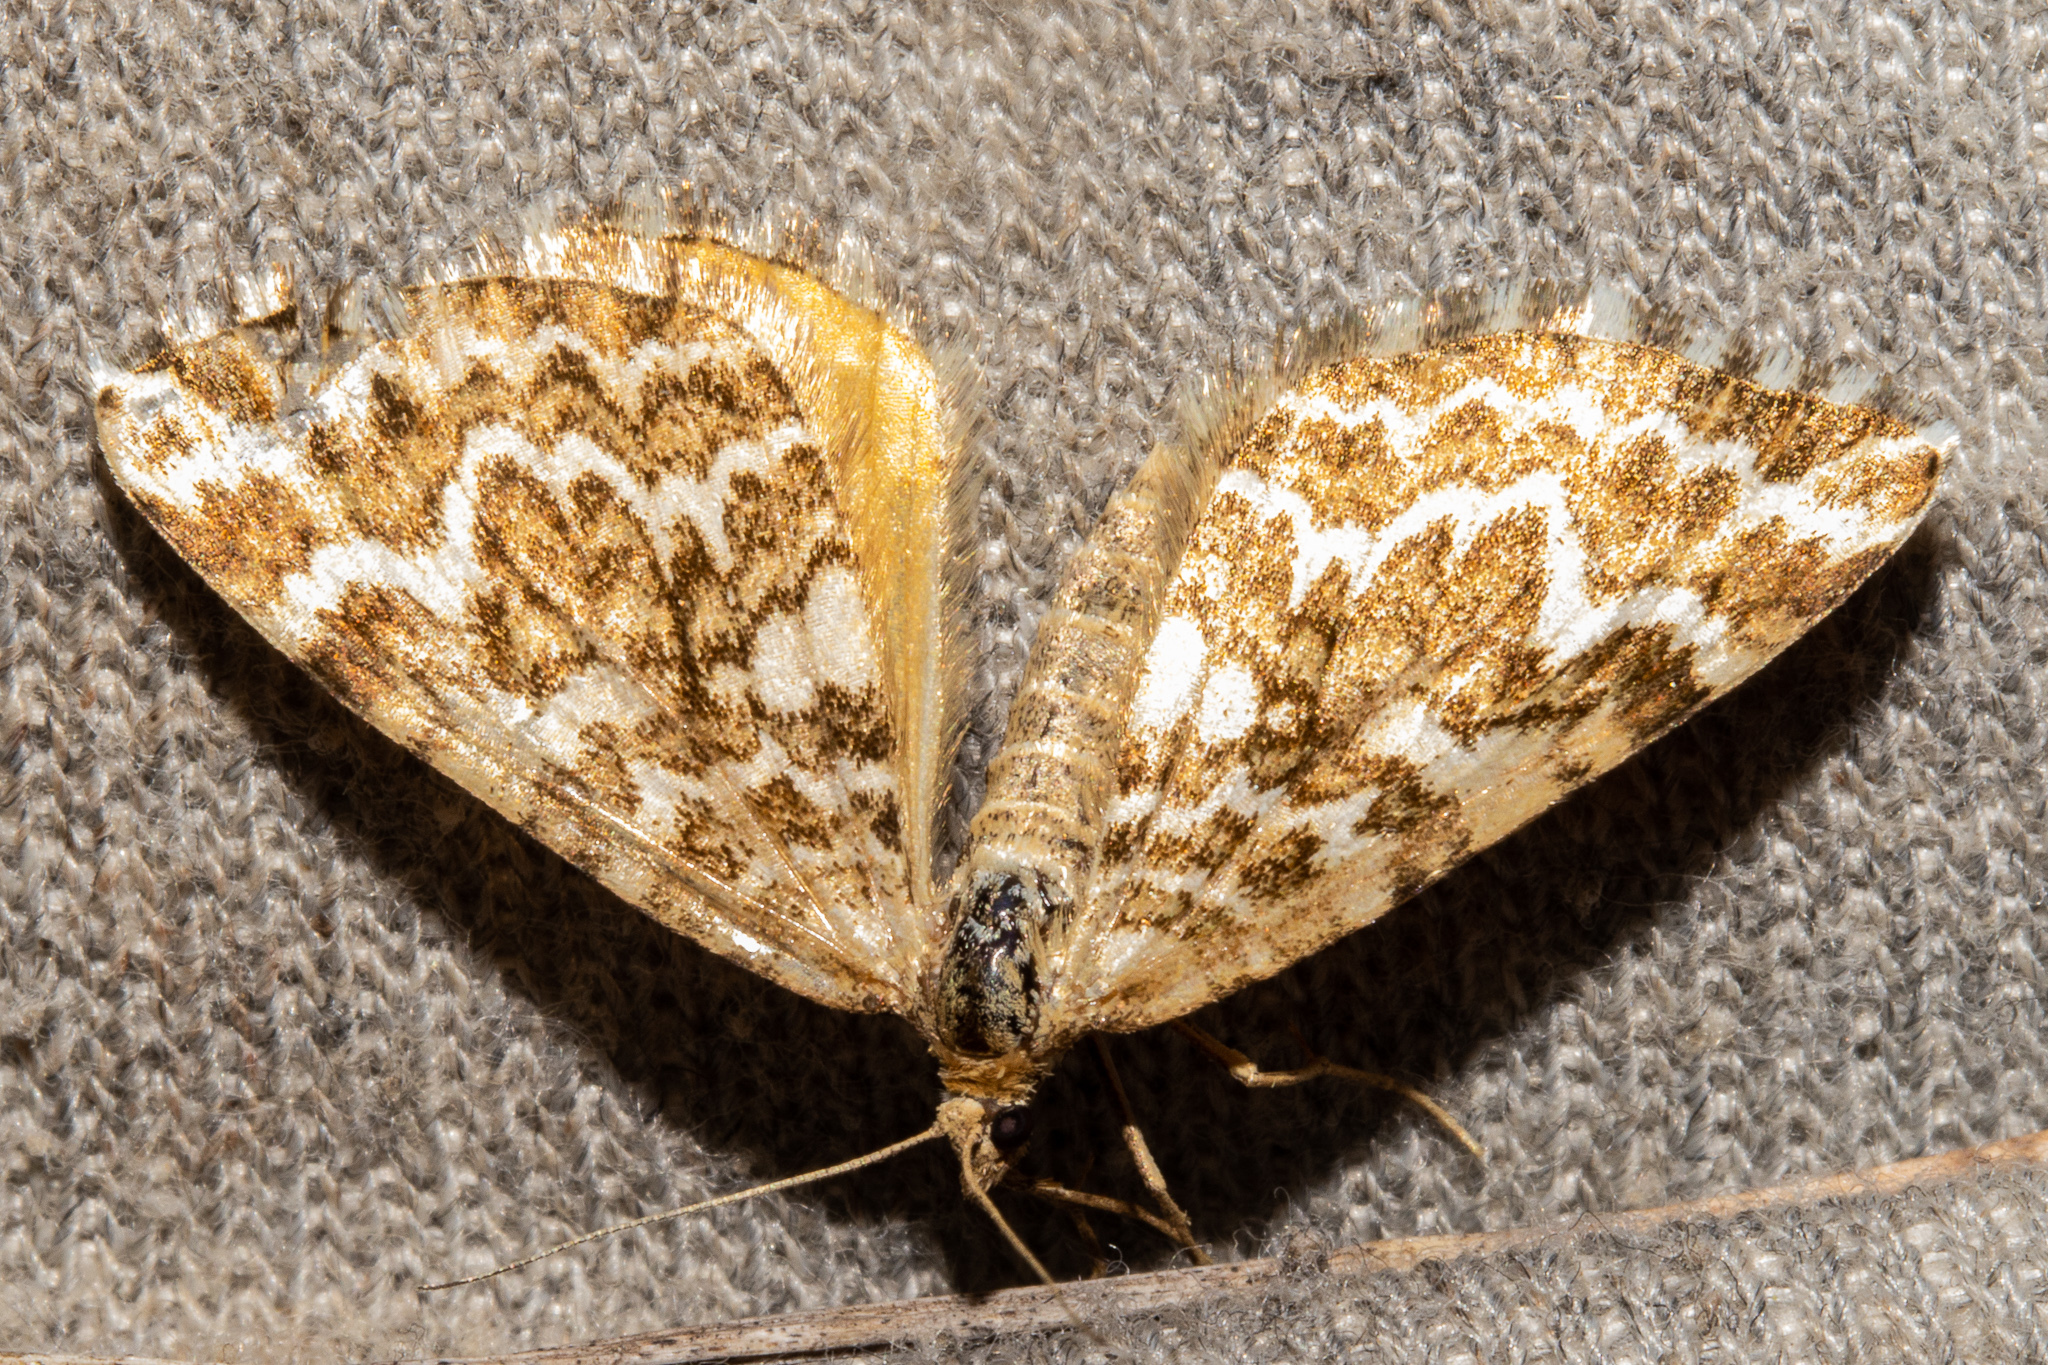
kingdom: Animalia
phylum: Arthropoda
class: Insecta
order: Lepidoptera
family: Geometridae
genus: Asaphodes
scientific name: Asaphodes clarata
